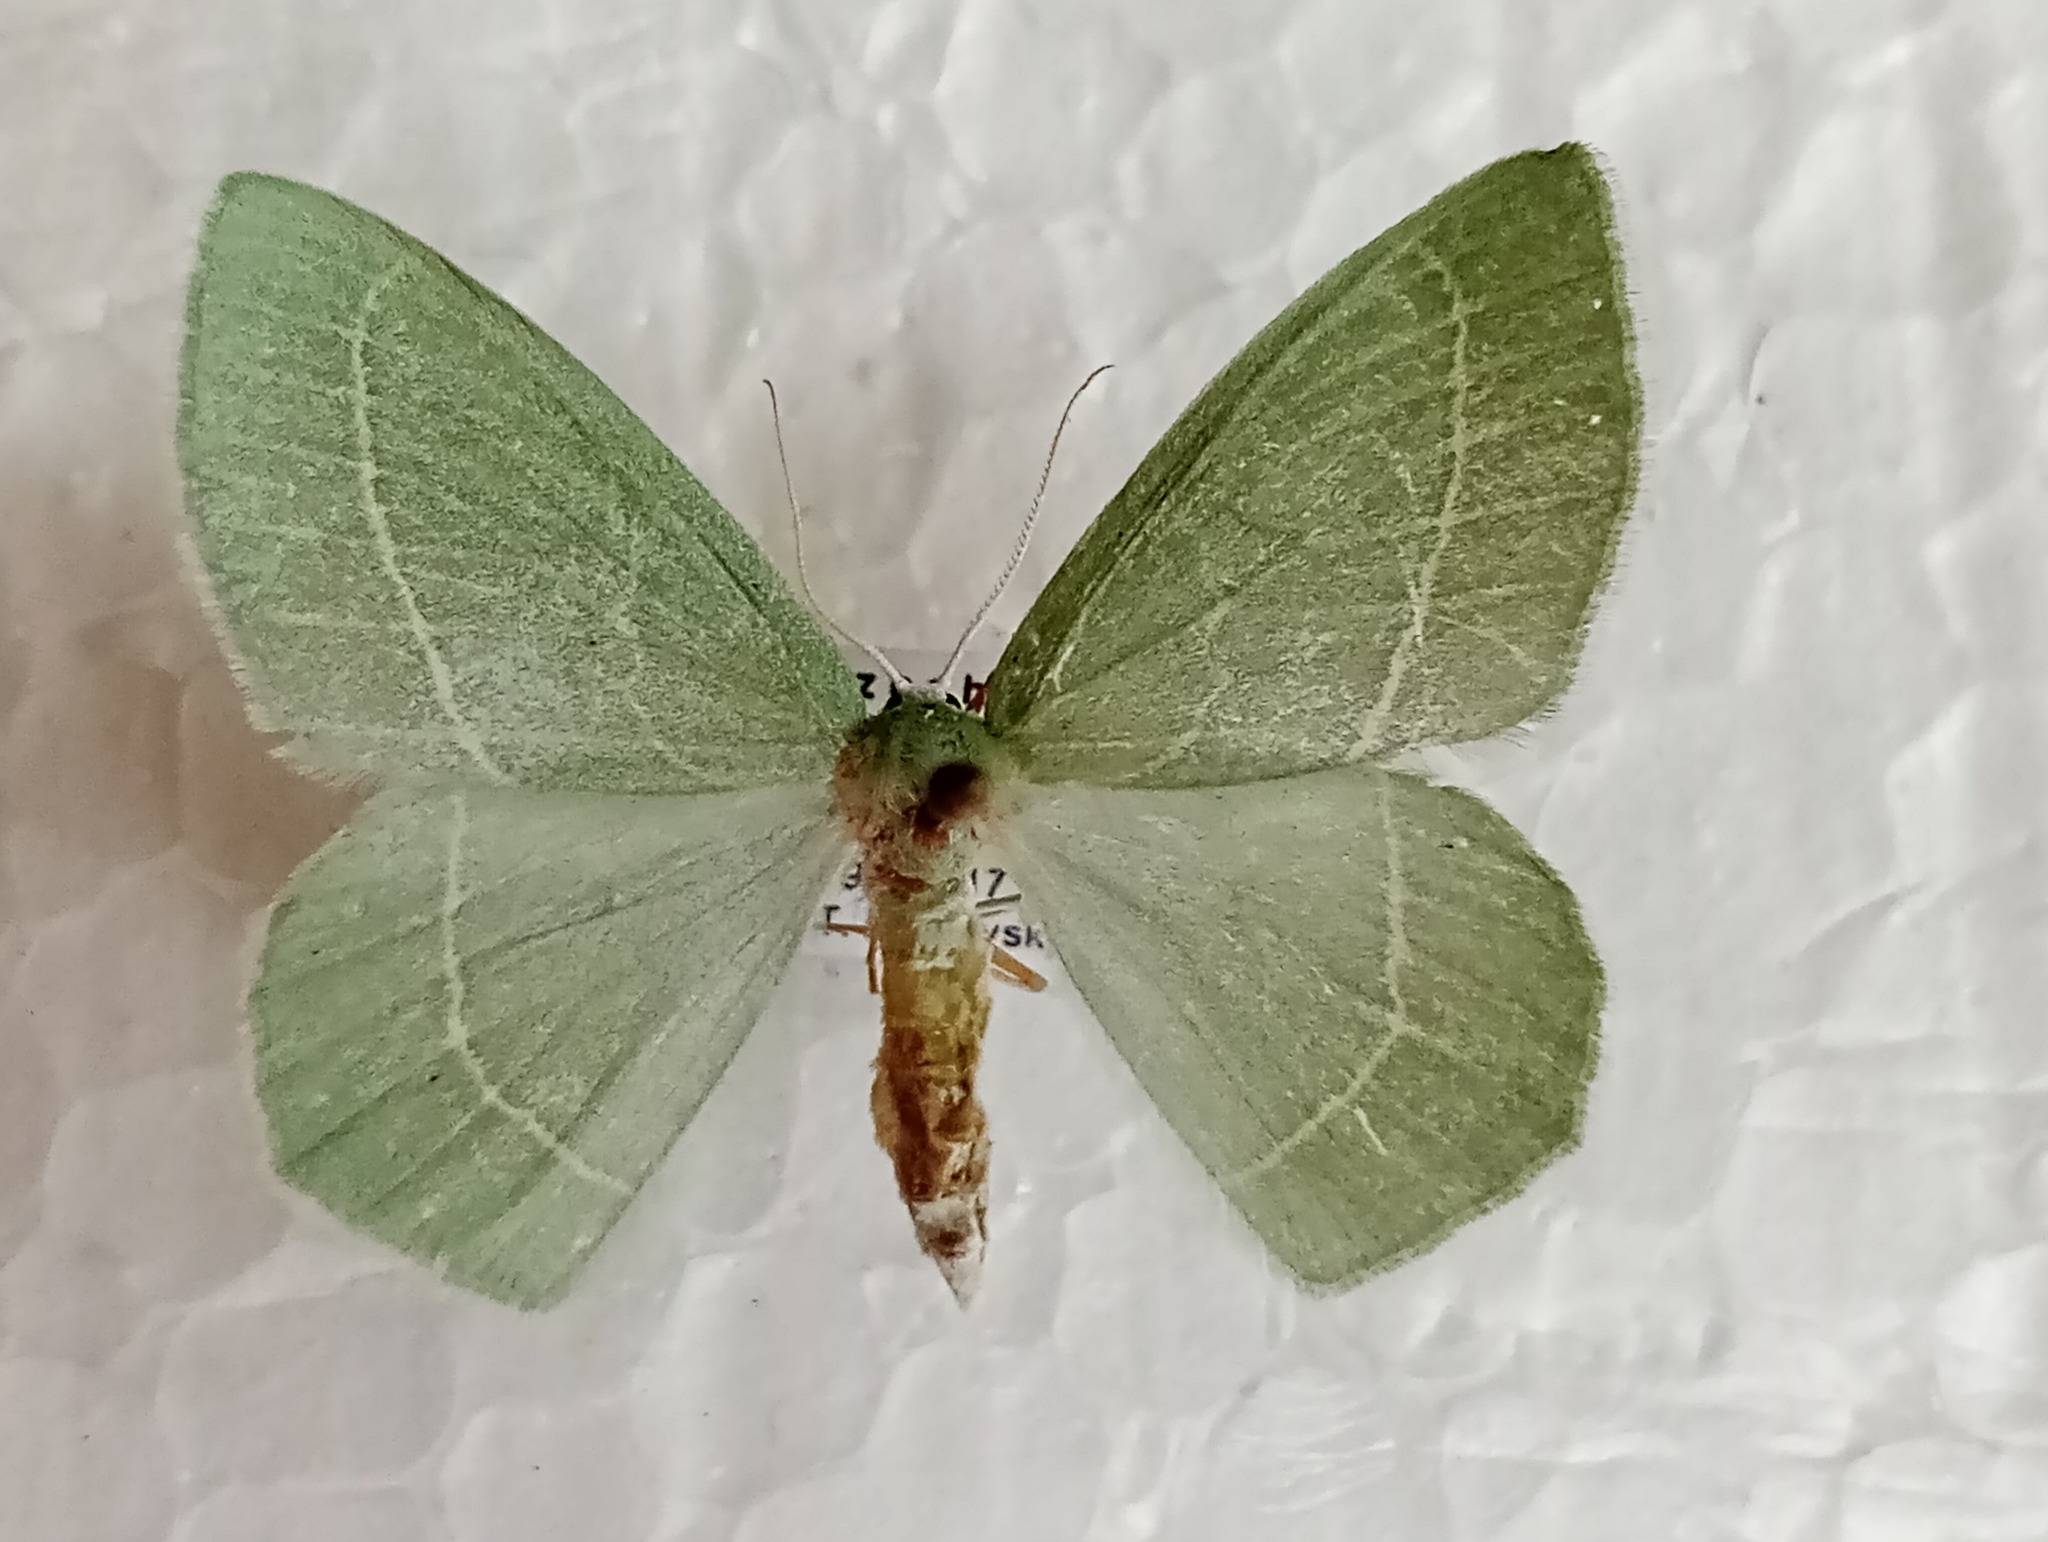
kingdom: Animalia
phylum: Arthropoda
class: Insecta
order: Lepidoptera
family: Geometridae
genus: Hemistola
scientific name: Hemistola chrysoprasaria
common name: Small emerald
